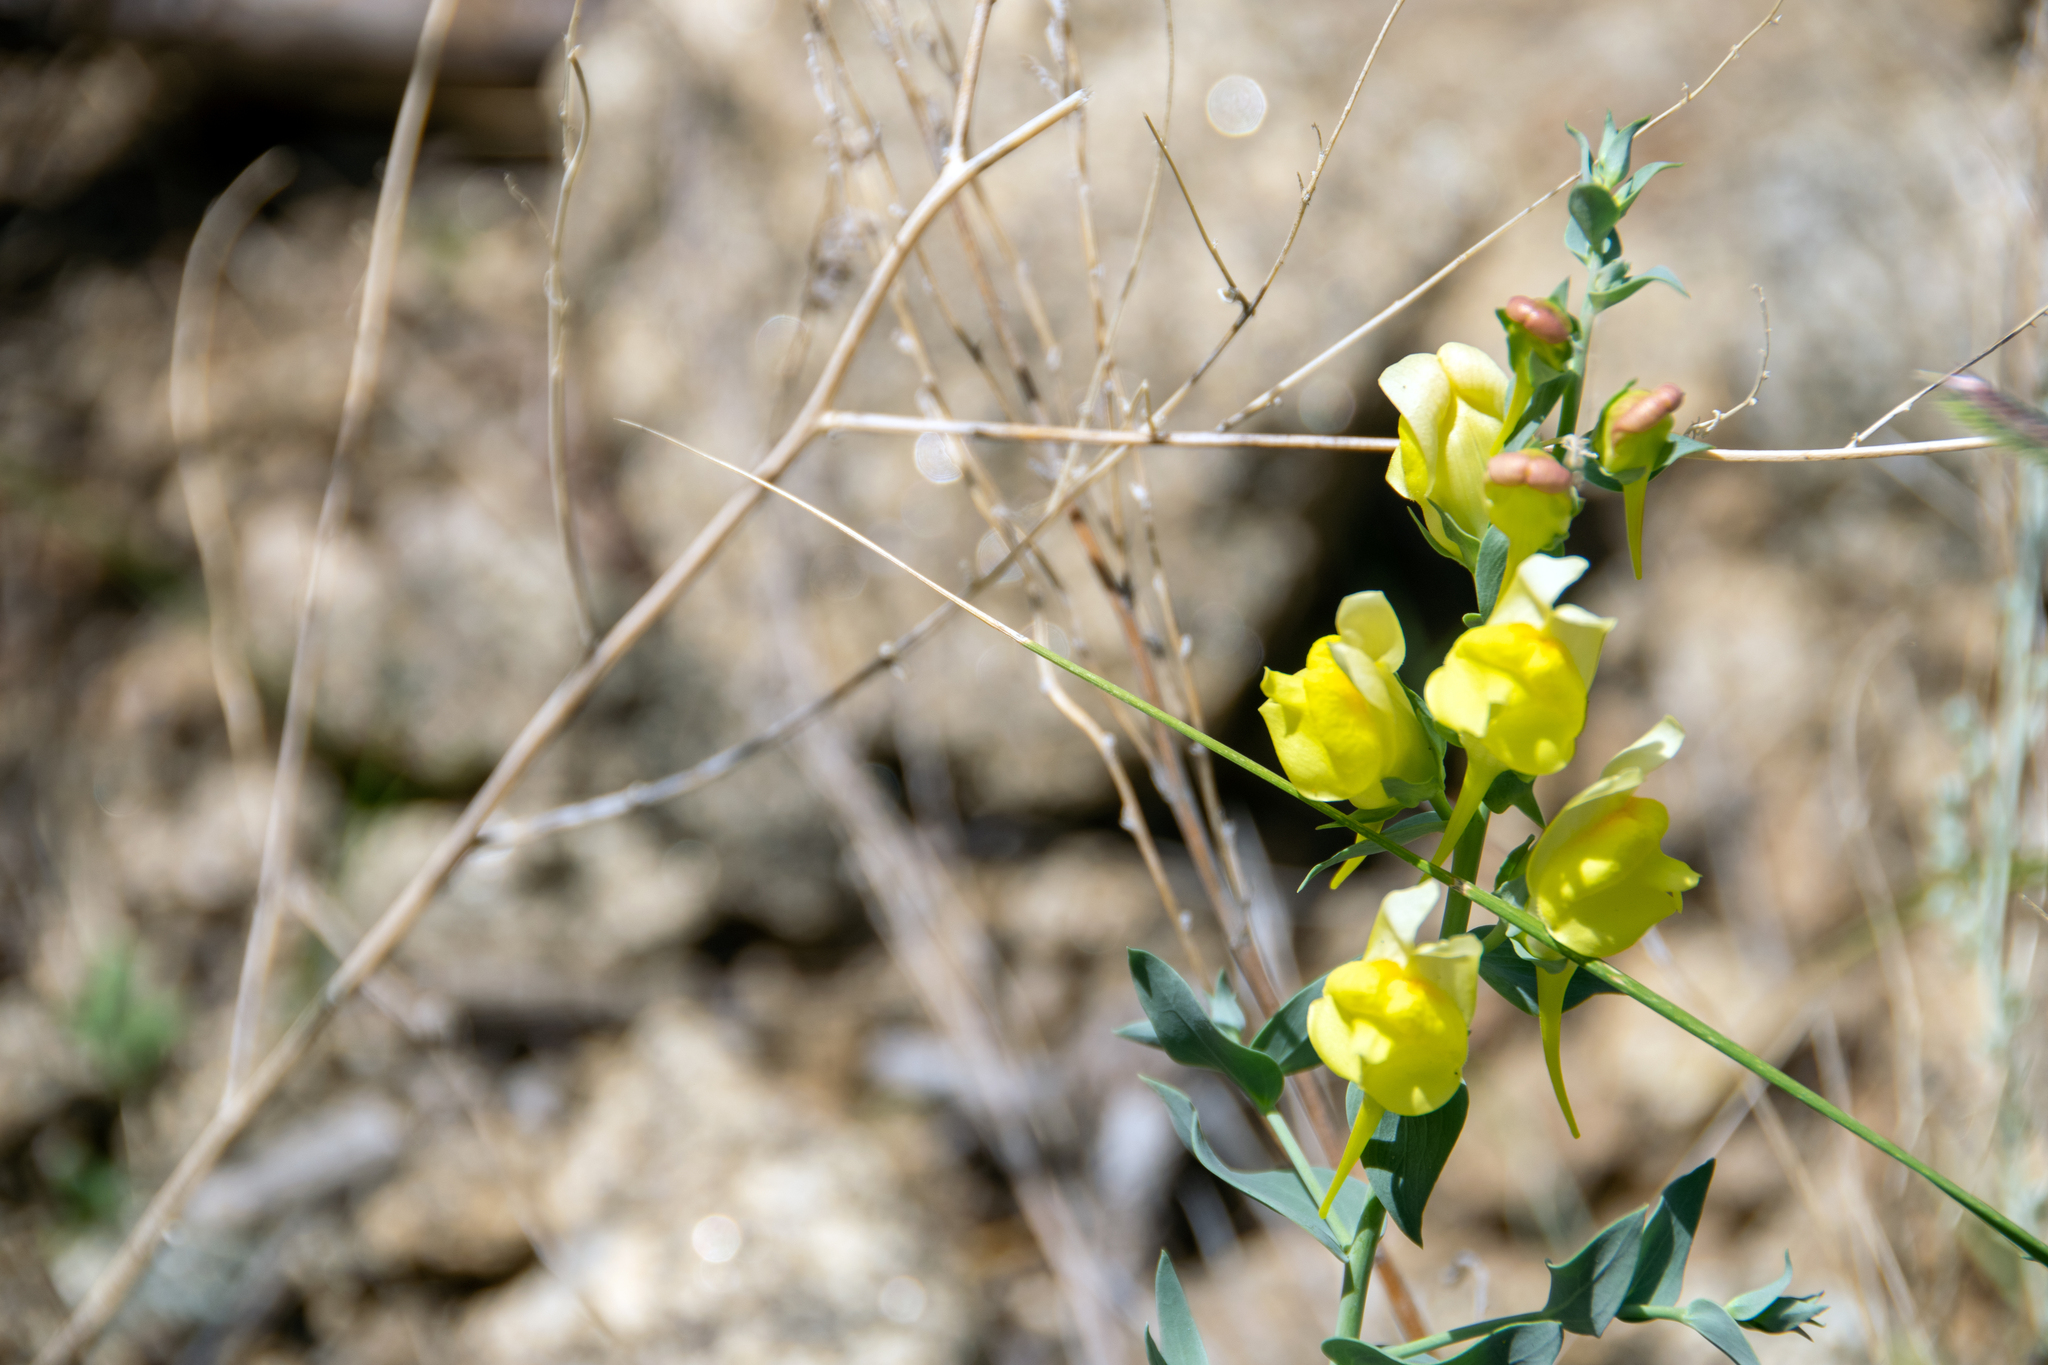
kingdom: Plantae
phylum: Tracheophyta
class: Magnoliopsida
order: Lamiales
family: Plantaginaceae
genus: Linaria
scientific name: Linaria dalmatica
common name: Dalmatian toadflax
